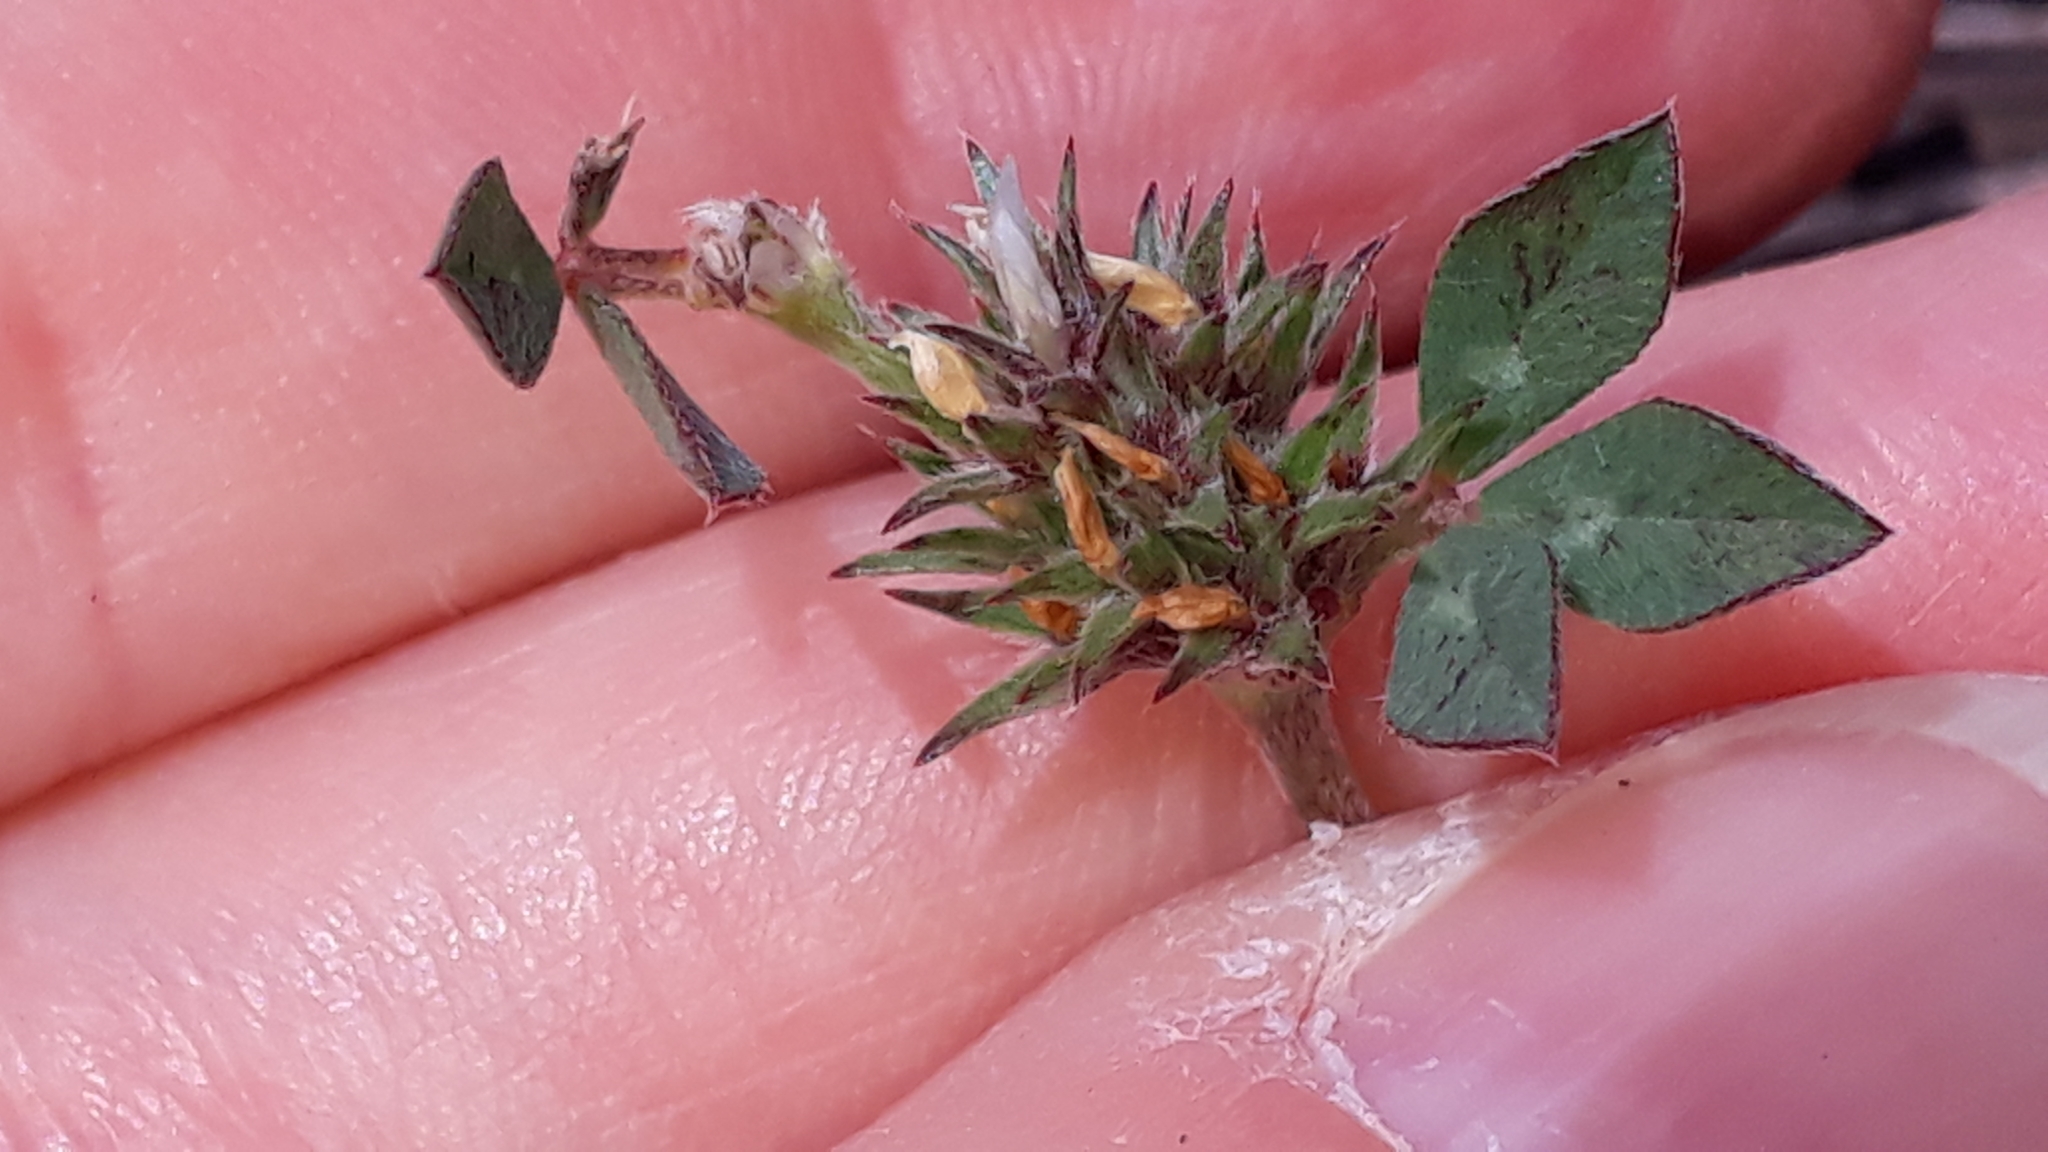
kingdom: Plantae
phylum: Tracheophyta
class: Magnoliopsida
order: Fabales
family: Fabaceae
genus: Trifolium
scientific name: Trifolium scabrum
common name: Rough clover
